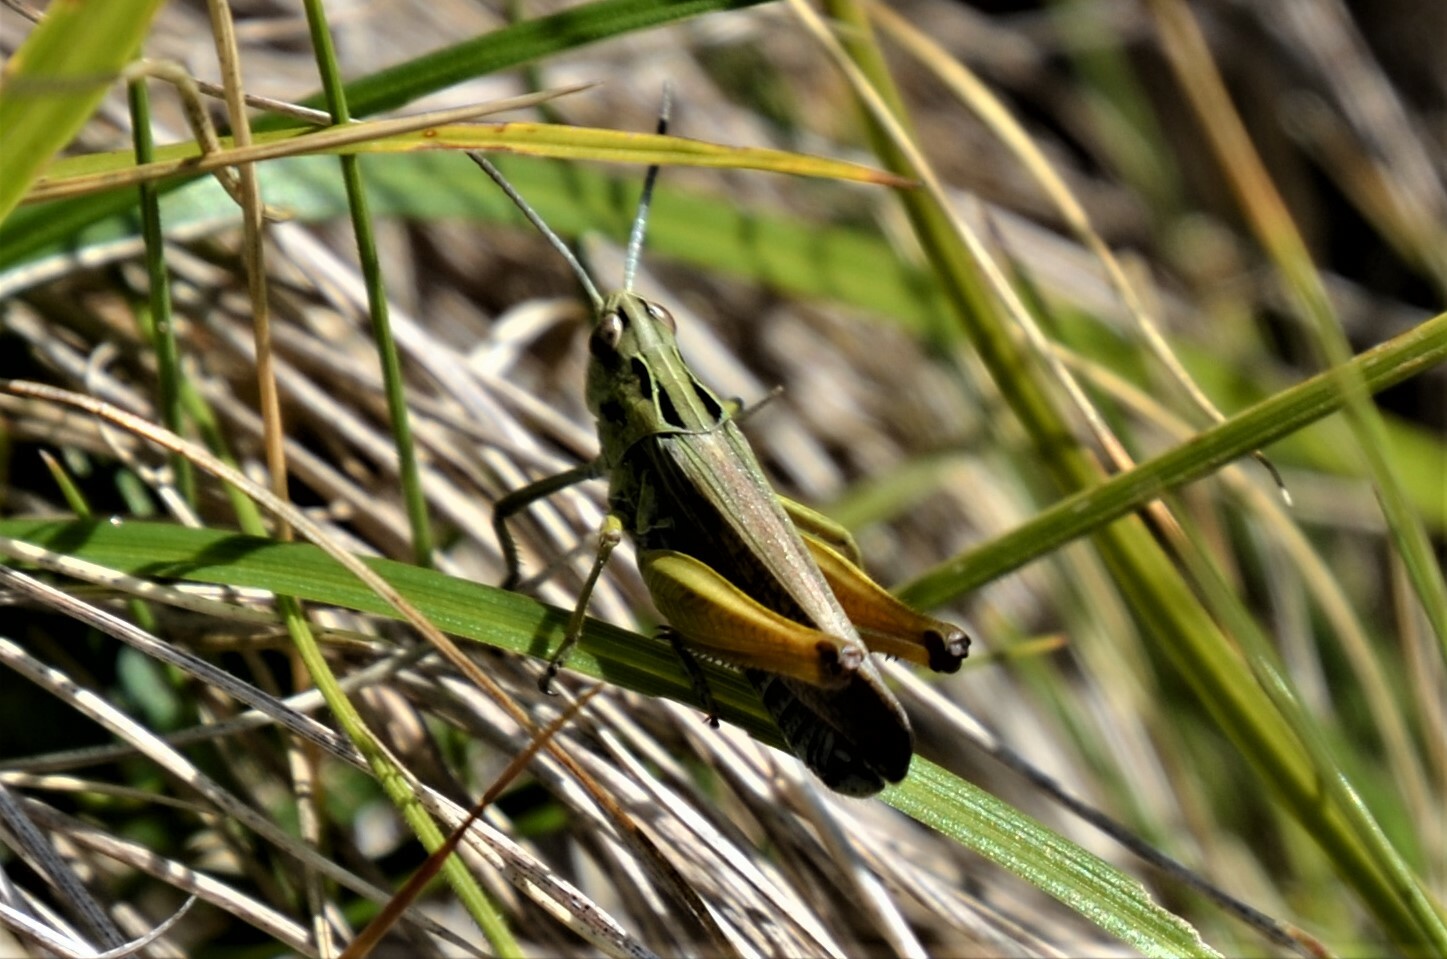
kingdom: Animalia
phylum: Arthropoda
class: Insecta
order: Orthoptera
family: Acrididae
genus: Omocestus
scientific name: Omocestus viridulus
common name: Common green grasshopper
